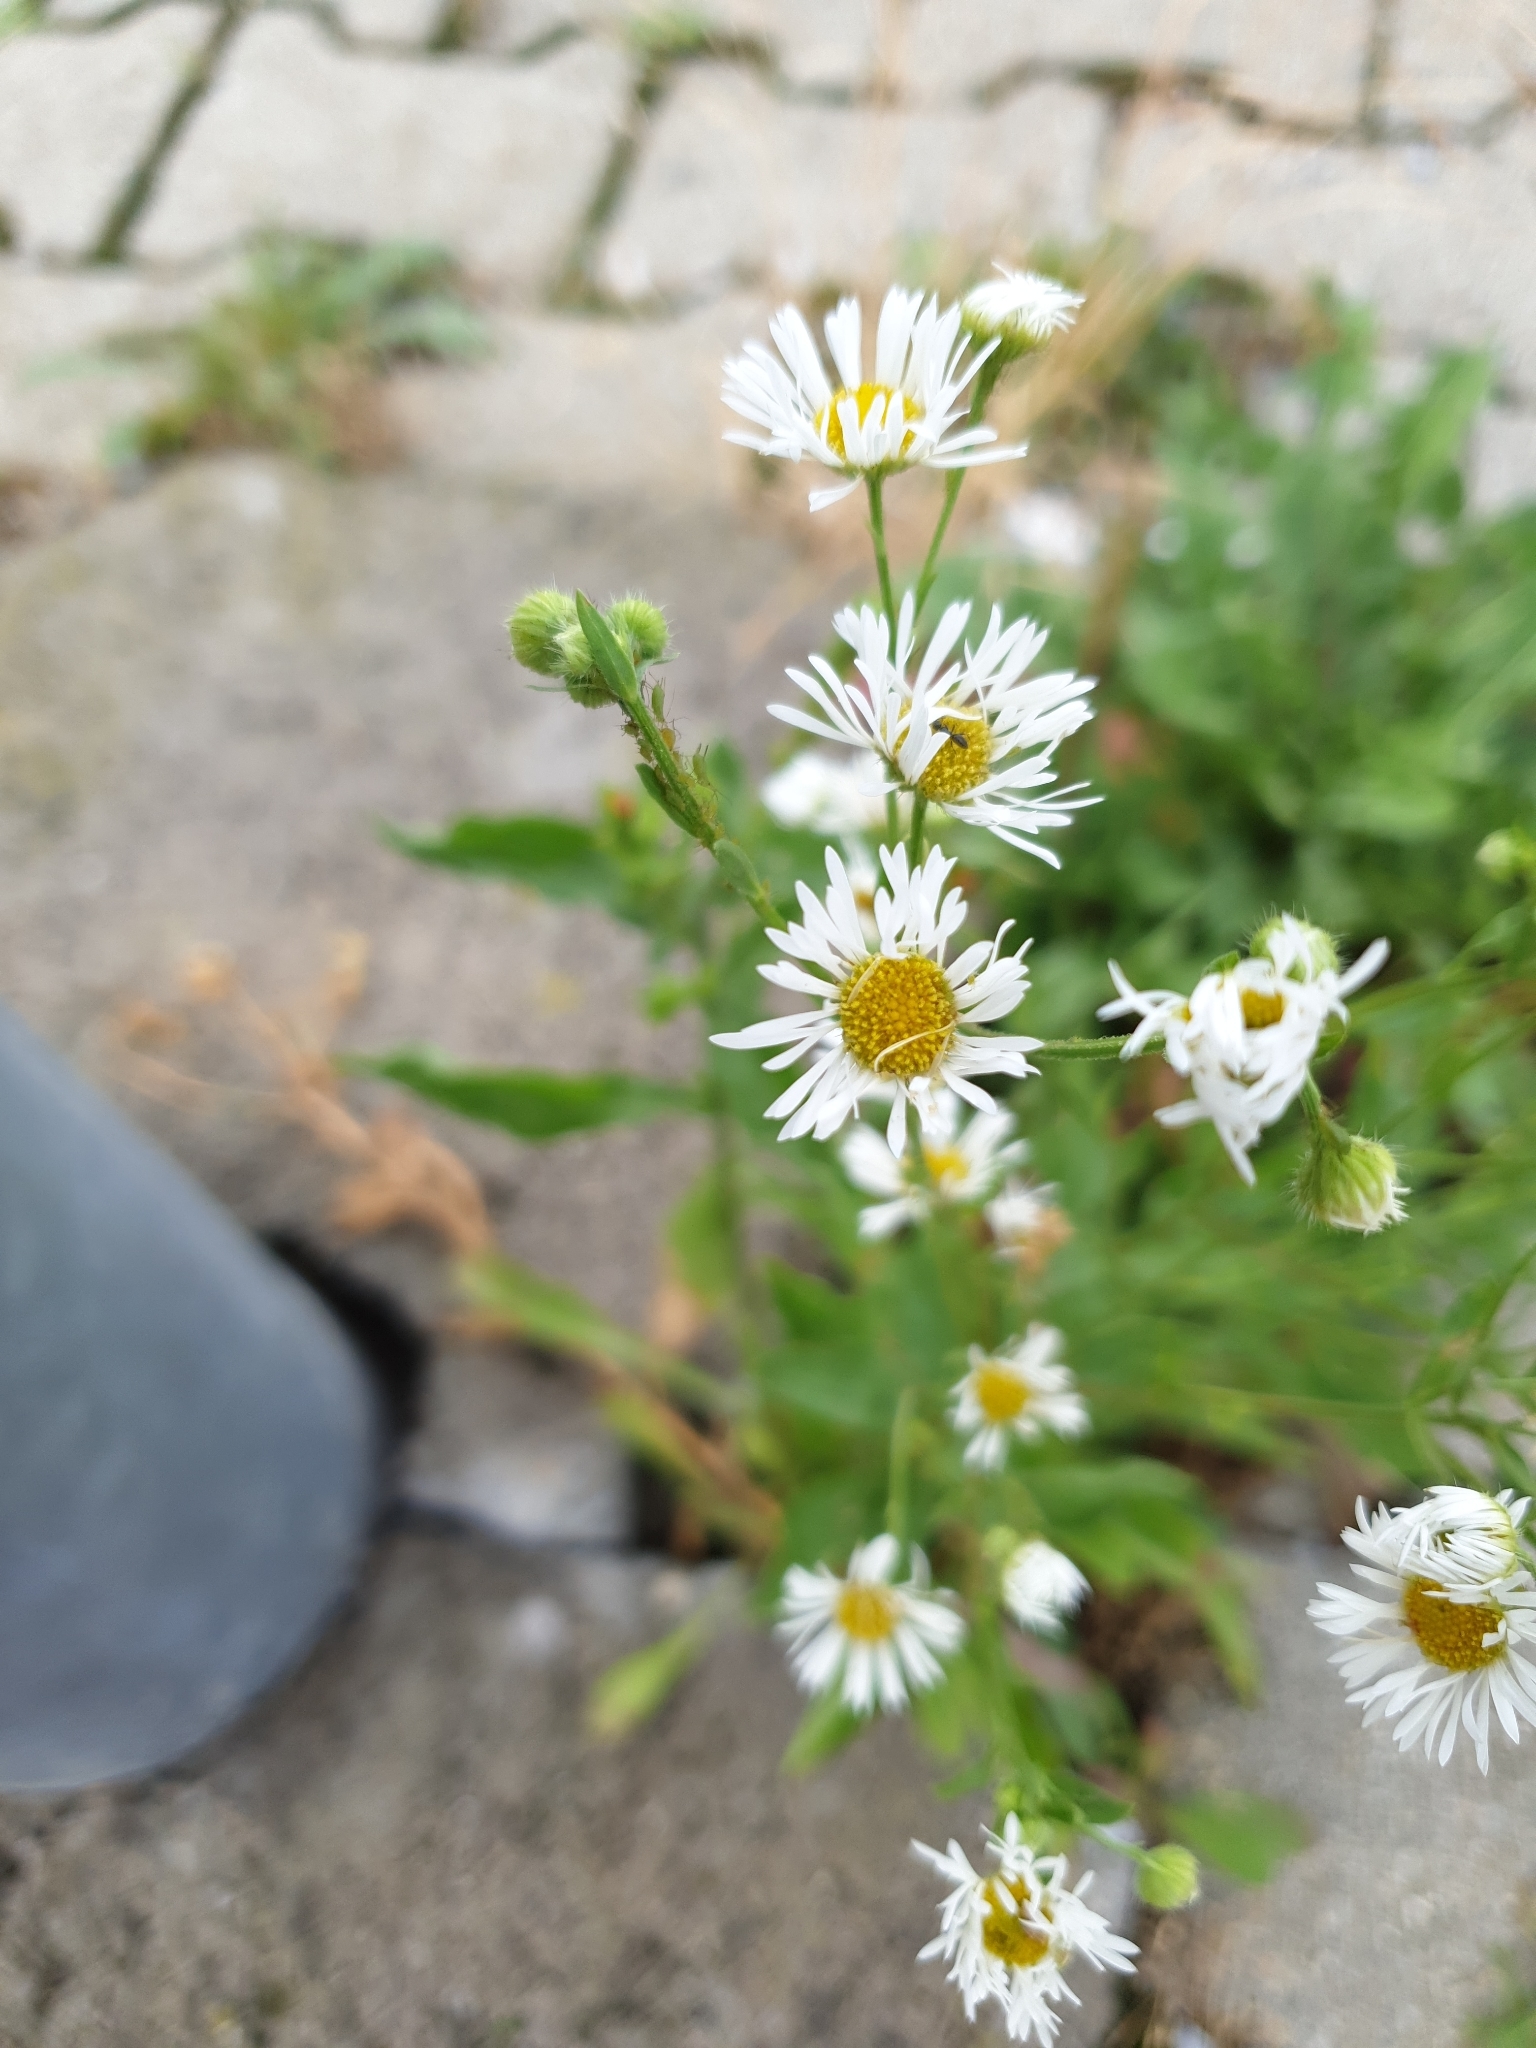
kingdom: Plantae
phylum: Tracheophyta
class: Magnoliopsida
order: Asterales
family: Asteraceae
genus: Erigeron
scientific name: Erigeron annuus
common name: Tall fleabane
